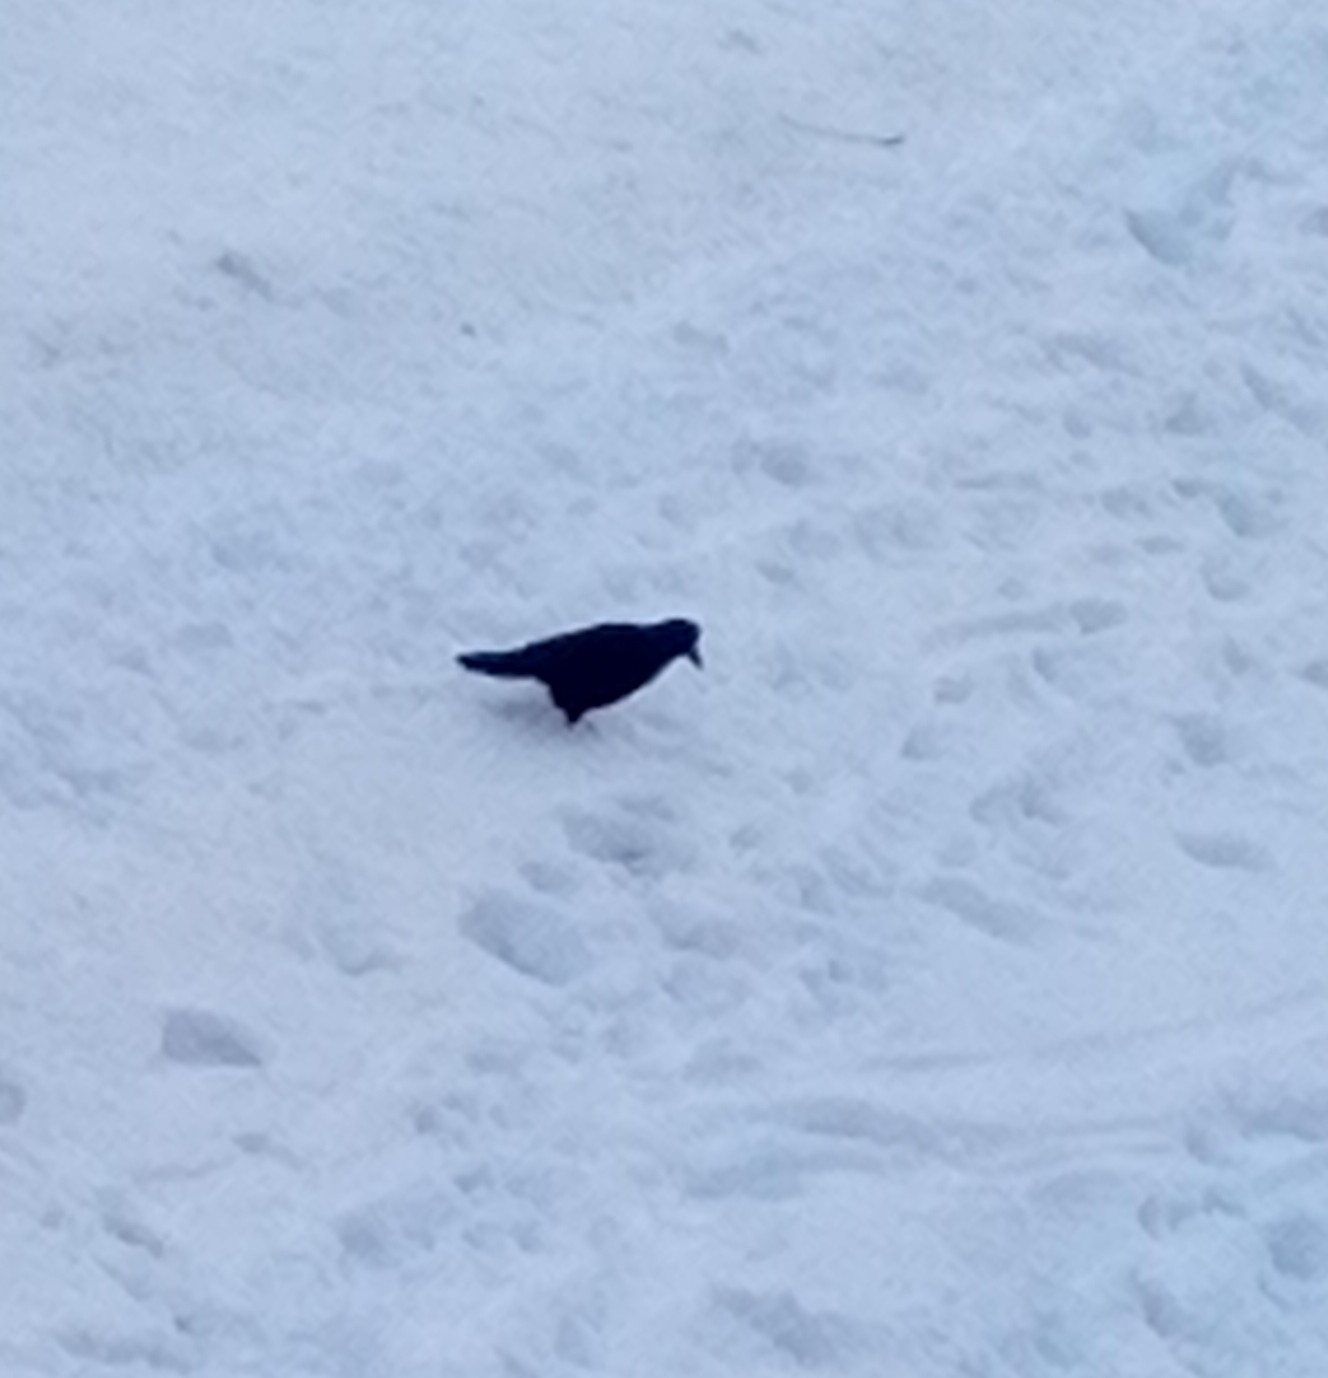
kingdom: Animalia
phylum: Chordata
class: Aves
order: Passeriformes
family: Corvidae
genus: Corvus
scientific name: Corvus frugilegus
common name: Rook
